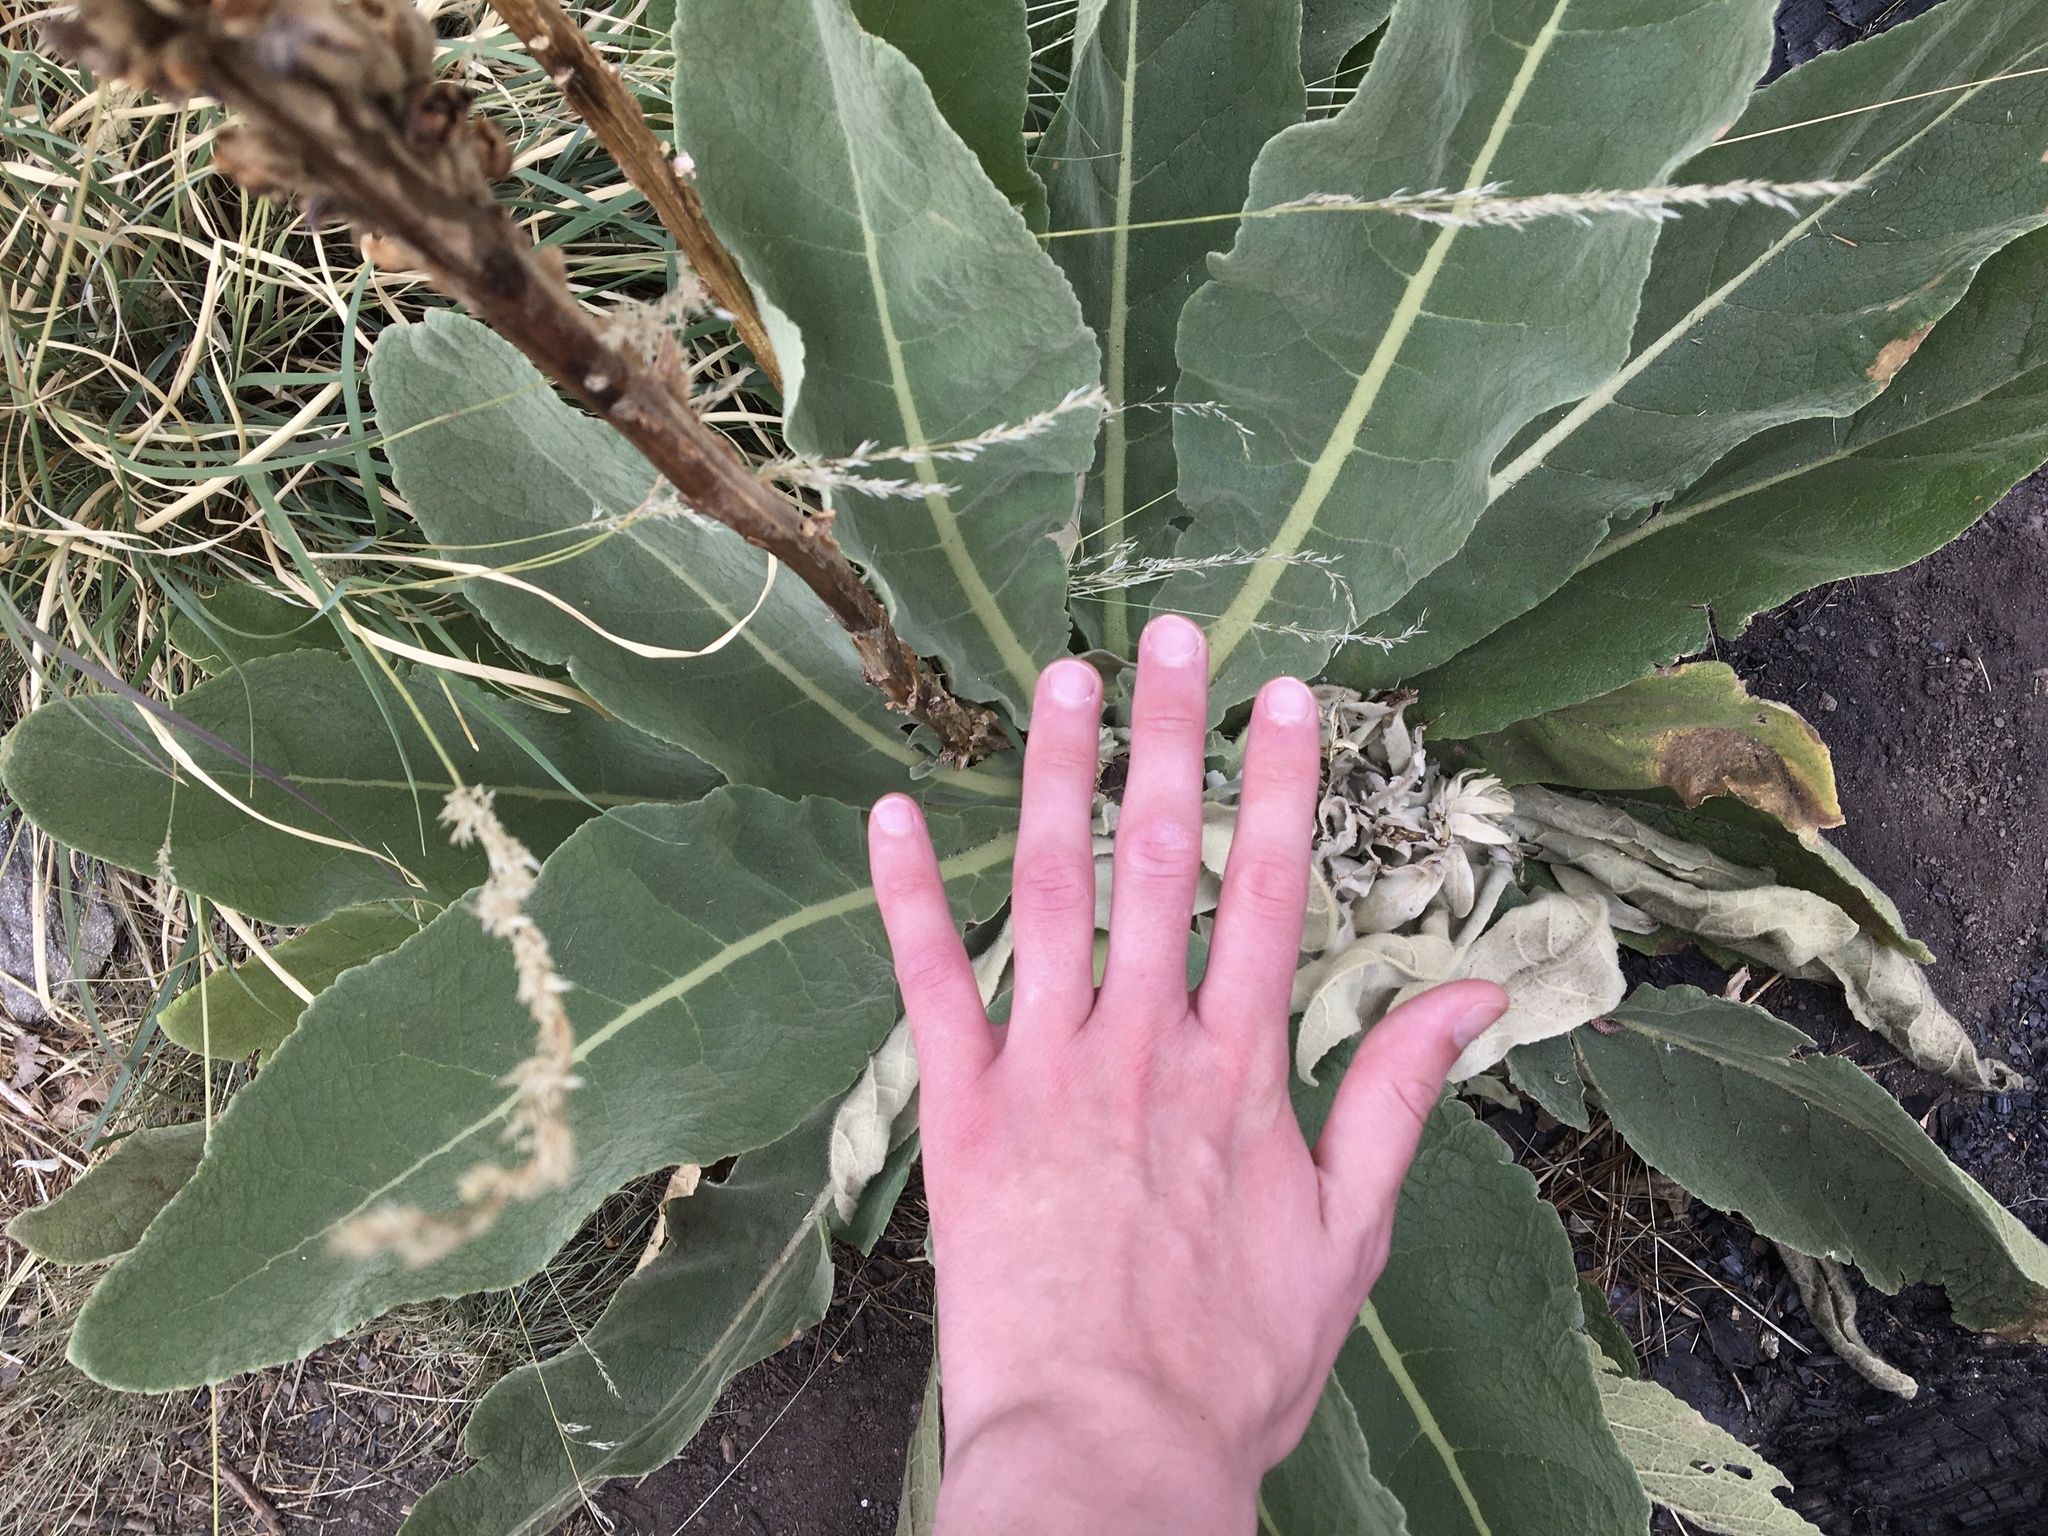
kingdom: Plantae
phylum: Tracheophyta
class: Magnoliopsida
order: Lamiales
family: Scrophulariaceae
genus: Verbascum
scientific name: Verbascum thapsus
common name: Common mullein
